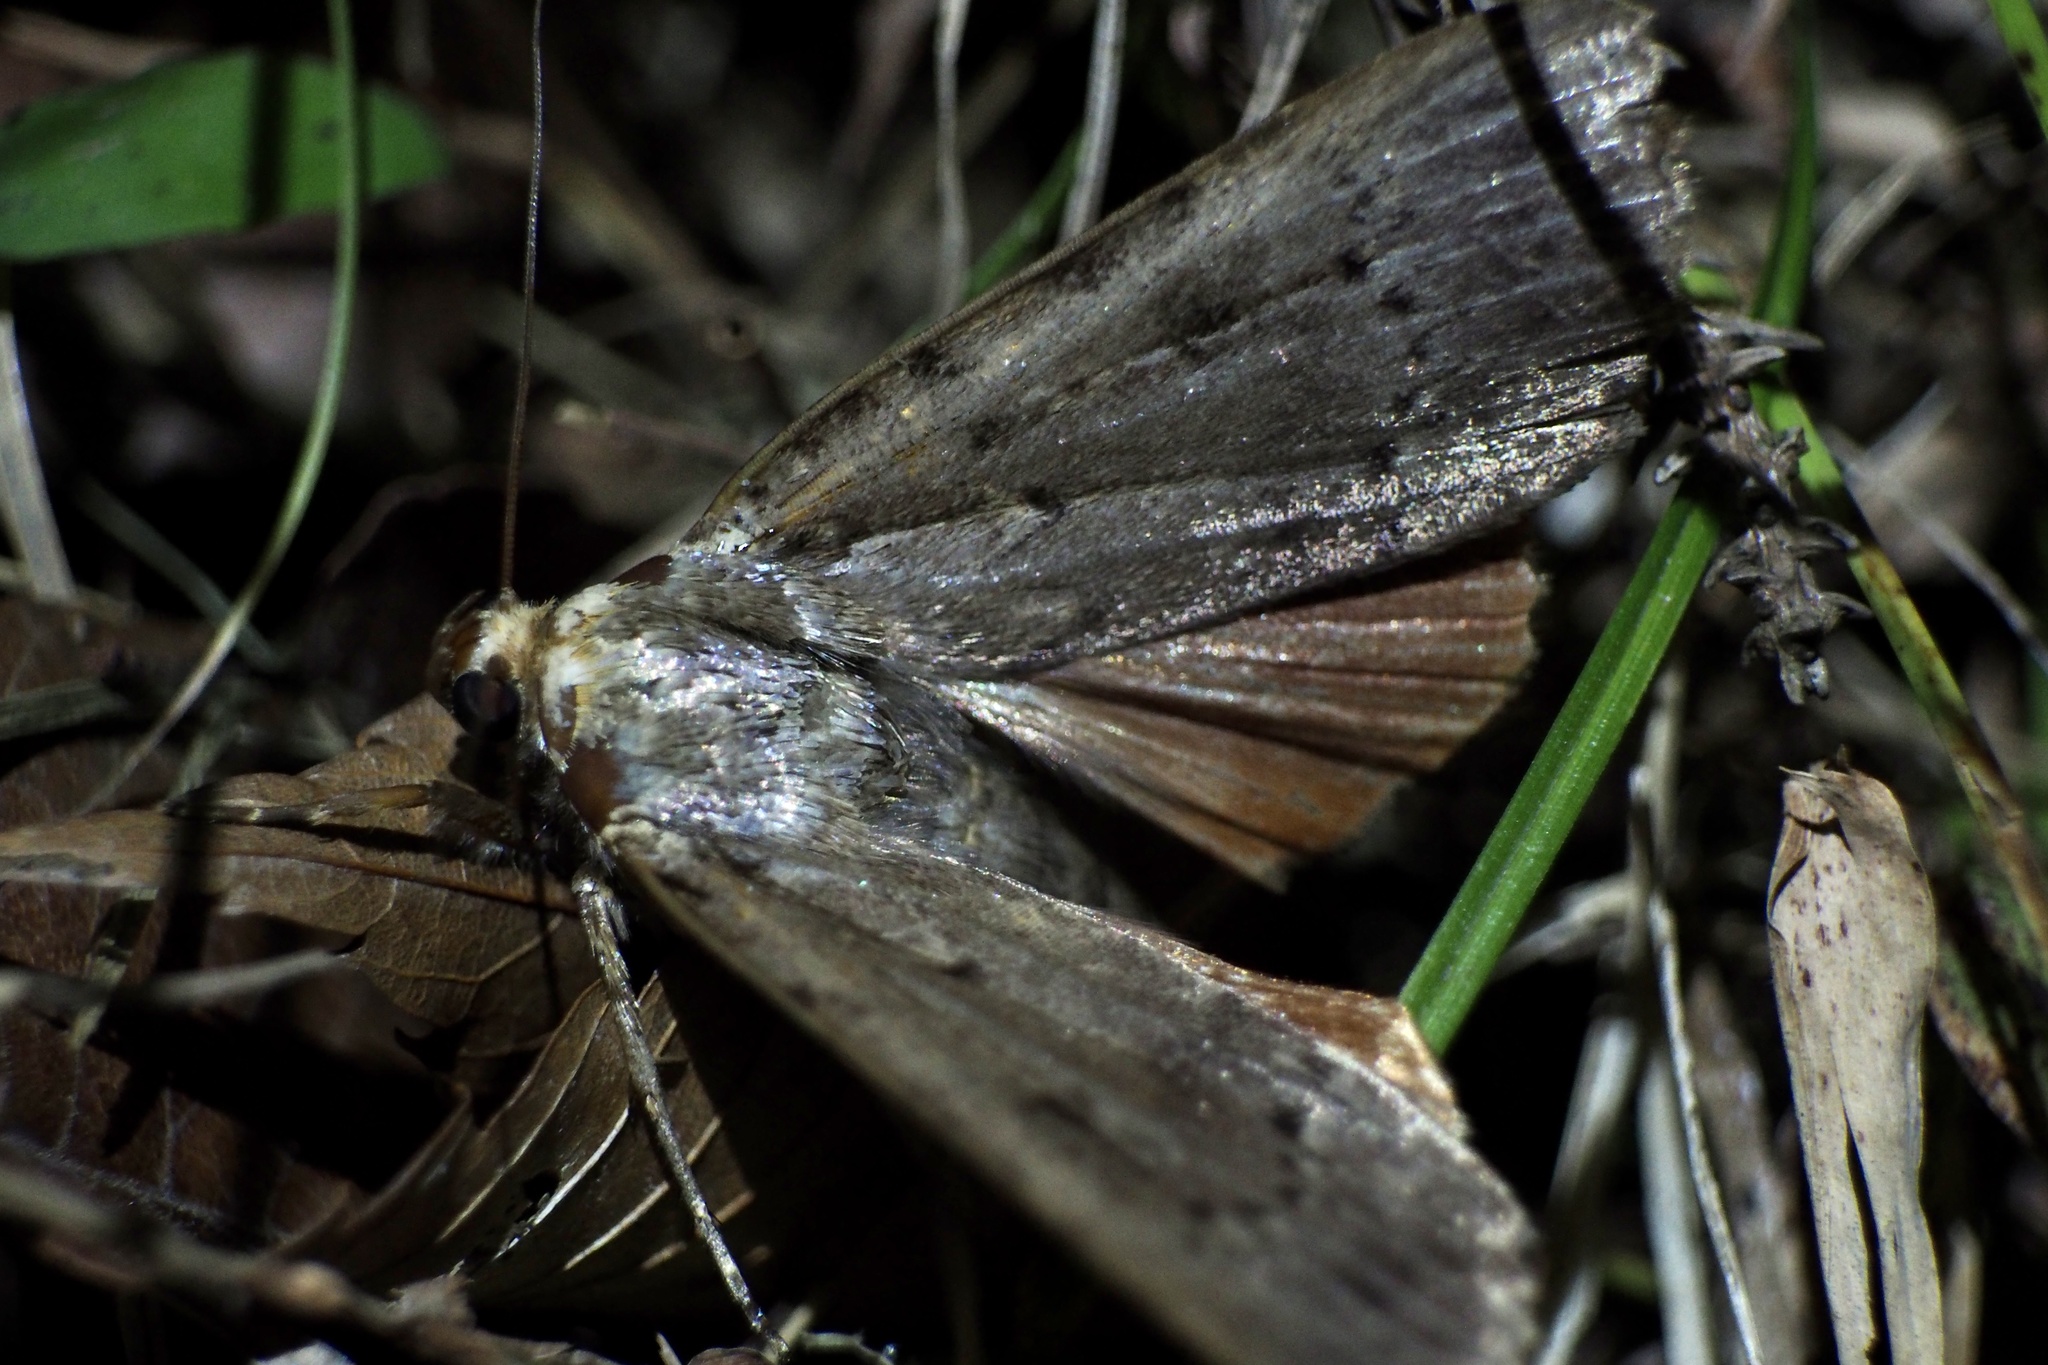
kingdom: Animalia
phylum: Arthropoda
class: Insecta
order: Lepidoptera
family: Noctuidae
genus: Amphipyra
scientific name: Amphipyra monolitha
